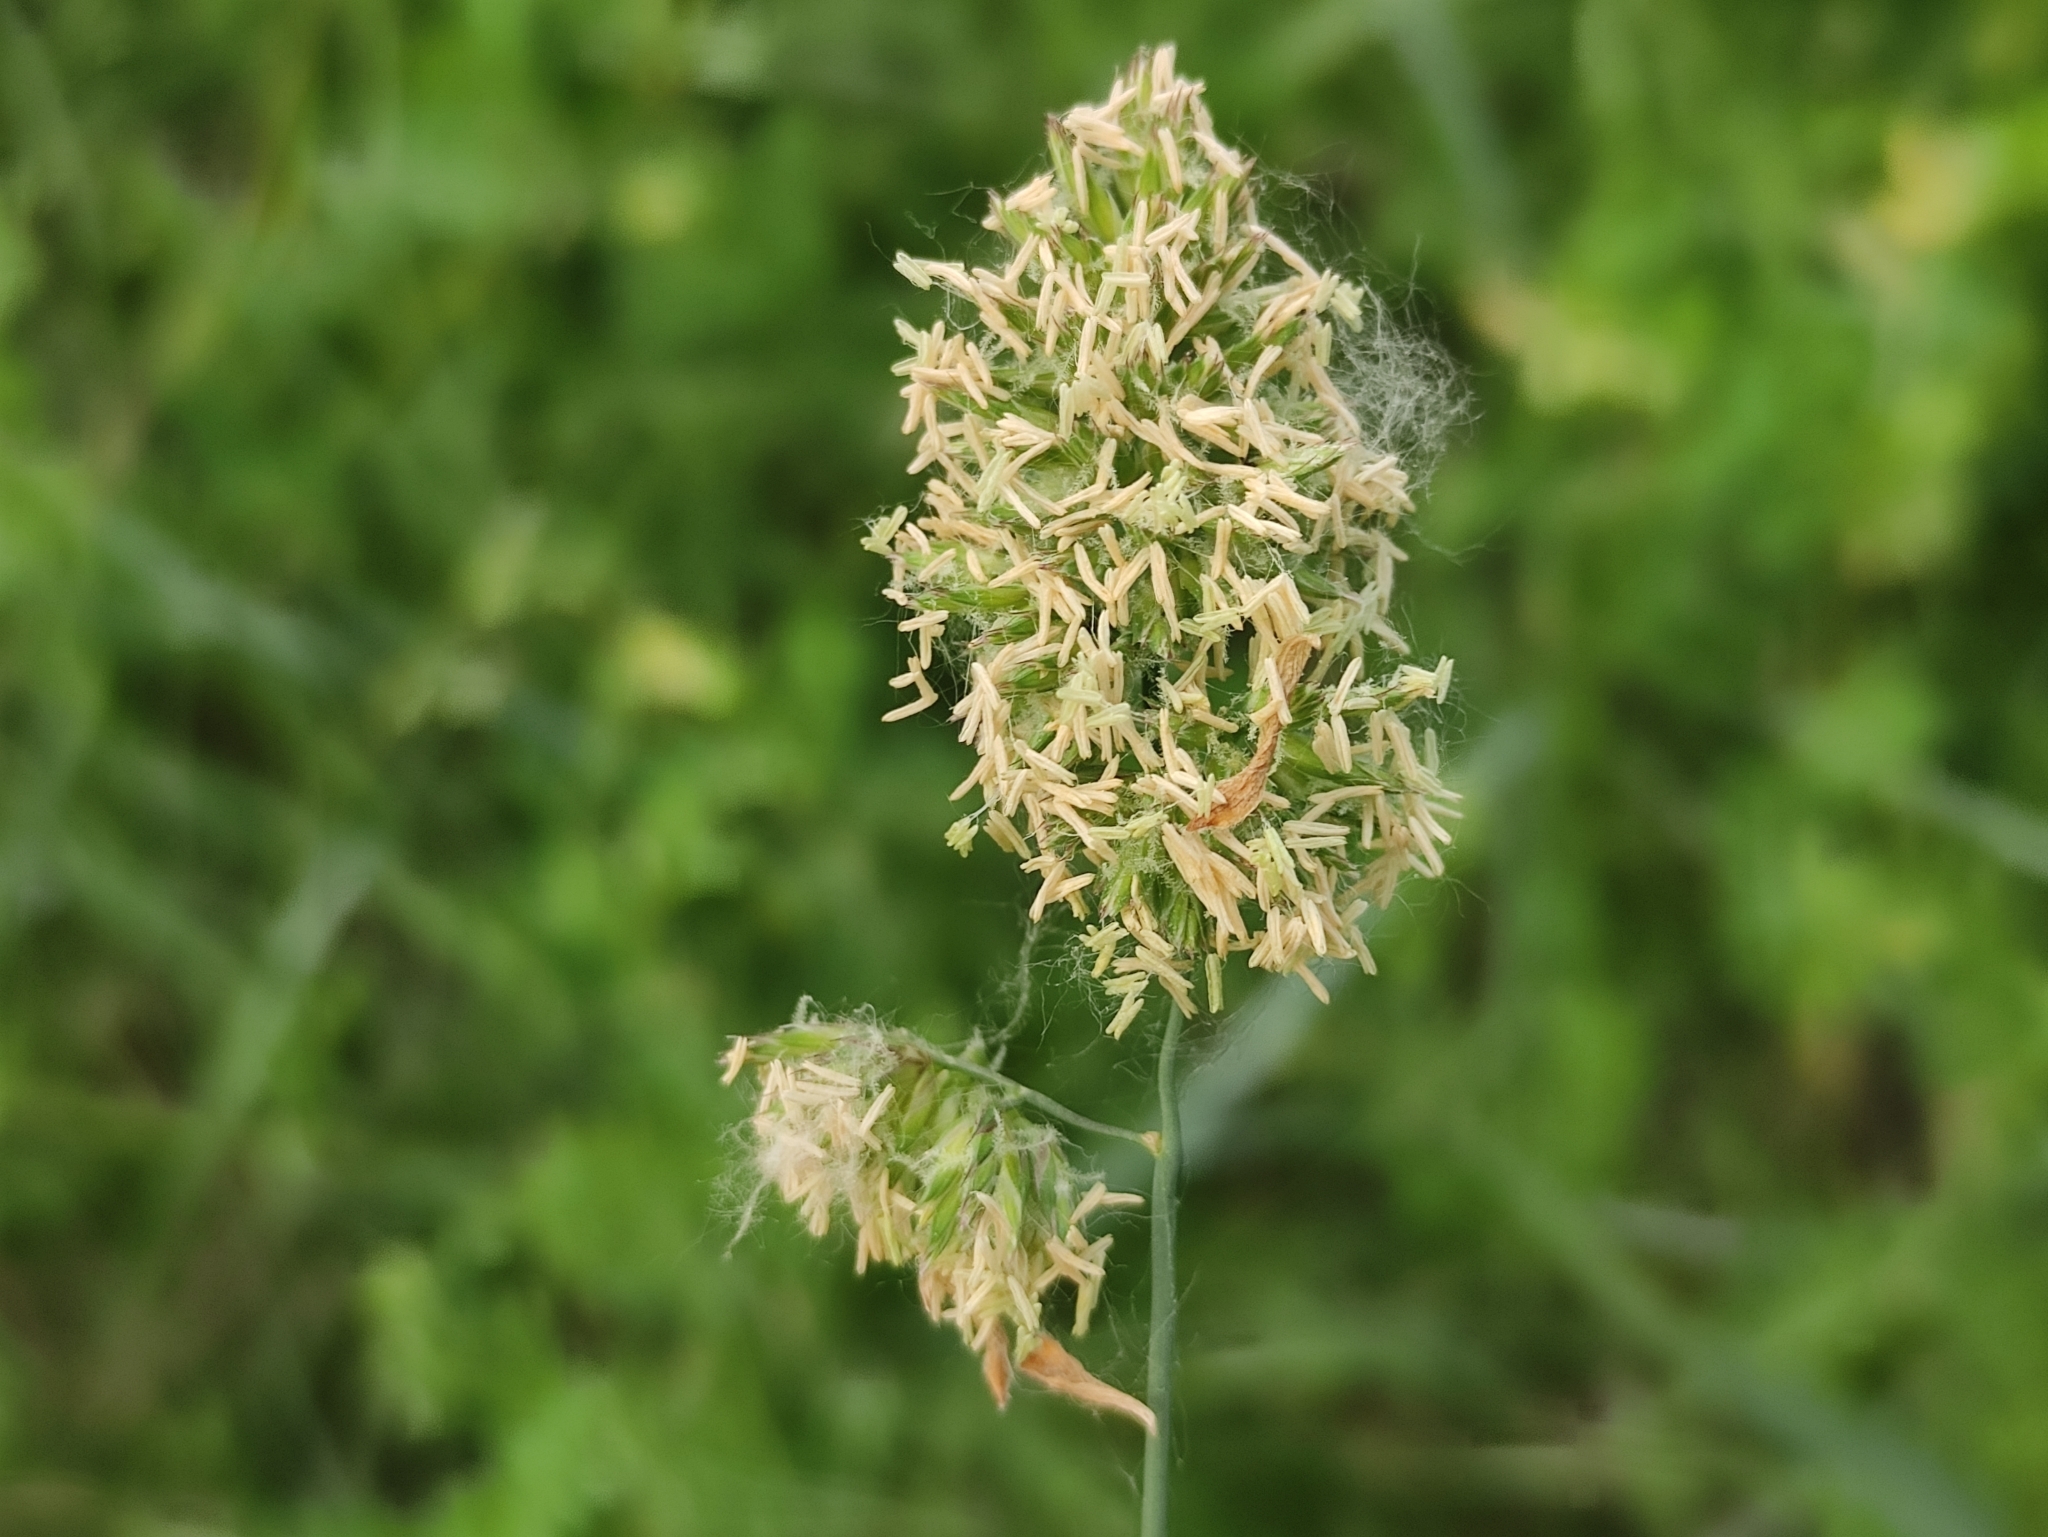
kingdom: Plantae
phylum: Tracheophyta
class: Liliopsida
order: Poales
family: Poaceae
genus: Dactylis
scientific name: Dactylis glomerata
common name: Orchardgrass
